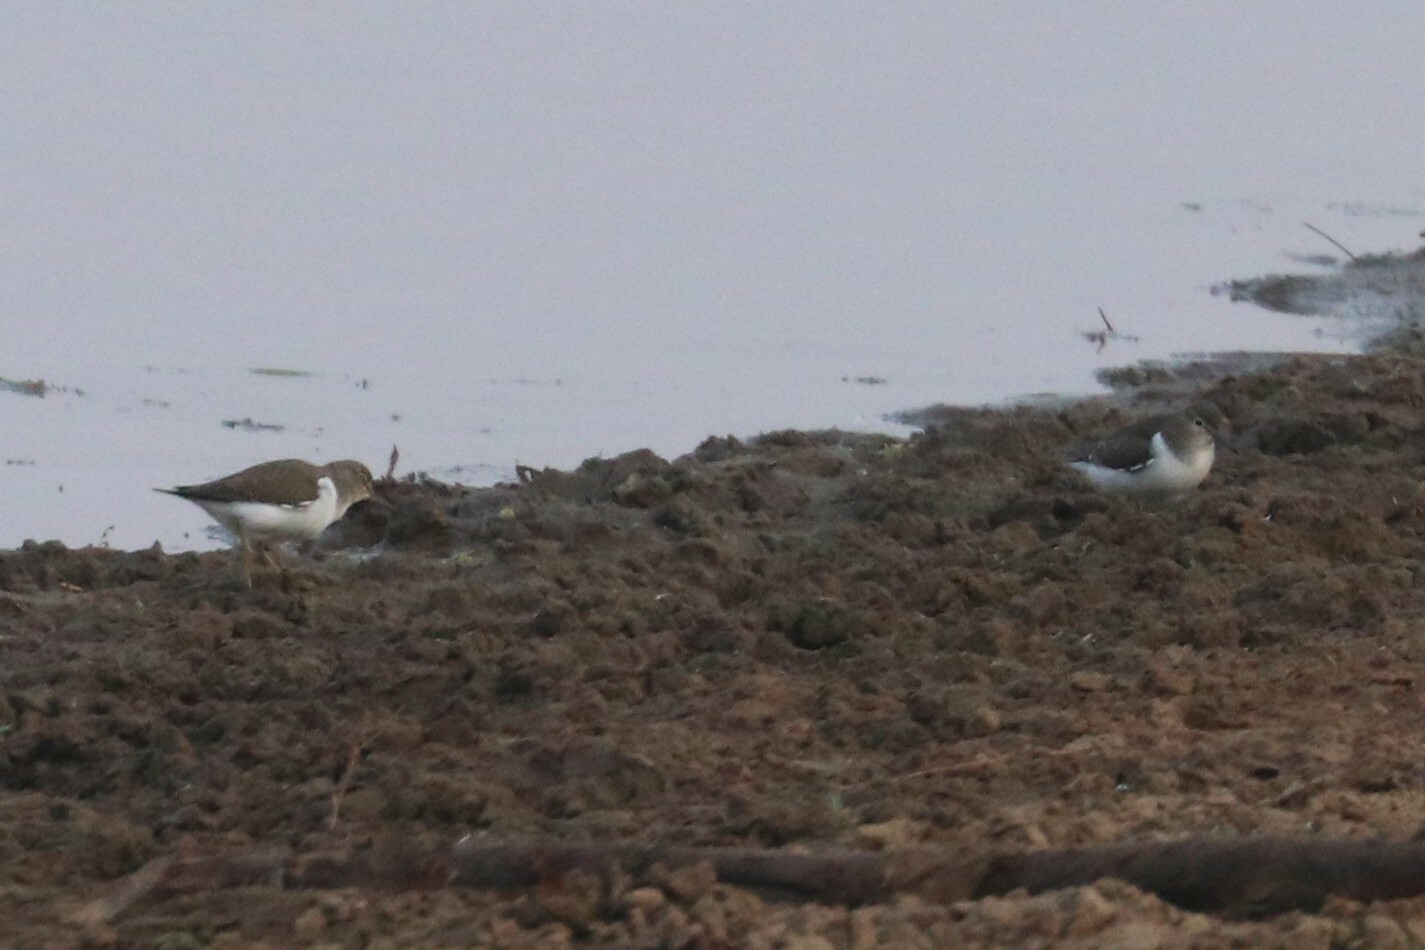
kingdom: Animalia
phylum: Chordata
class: Aves
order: Charadriiformes
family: Scolopacidae
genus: Actitis
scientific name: Actitis hypoleucos
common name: Common sandpiper
